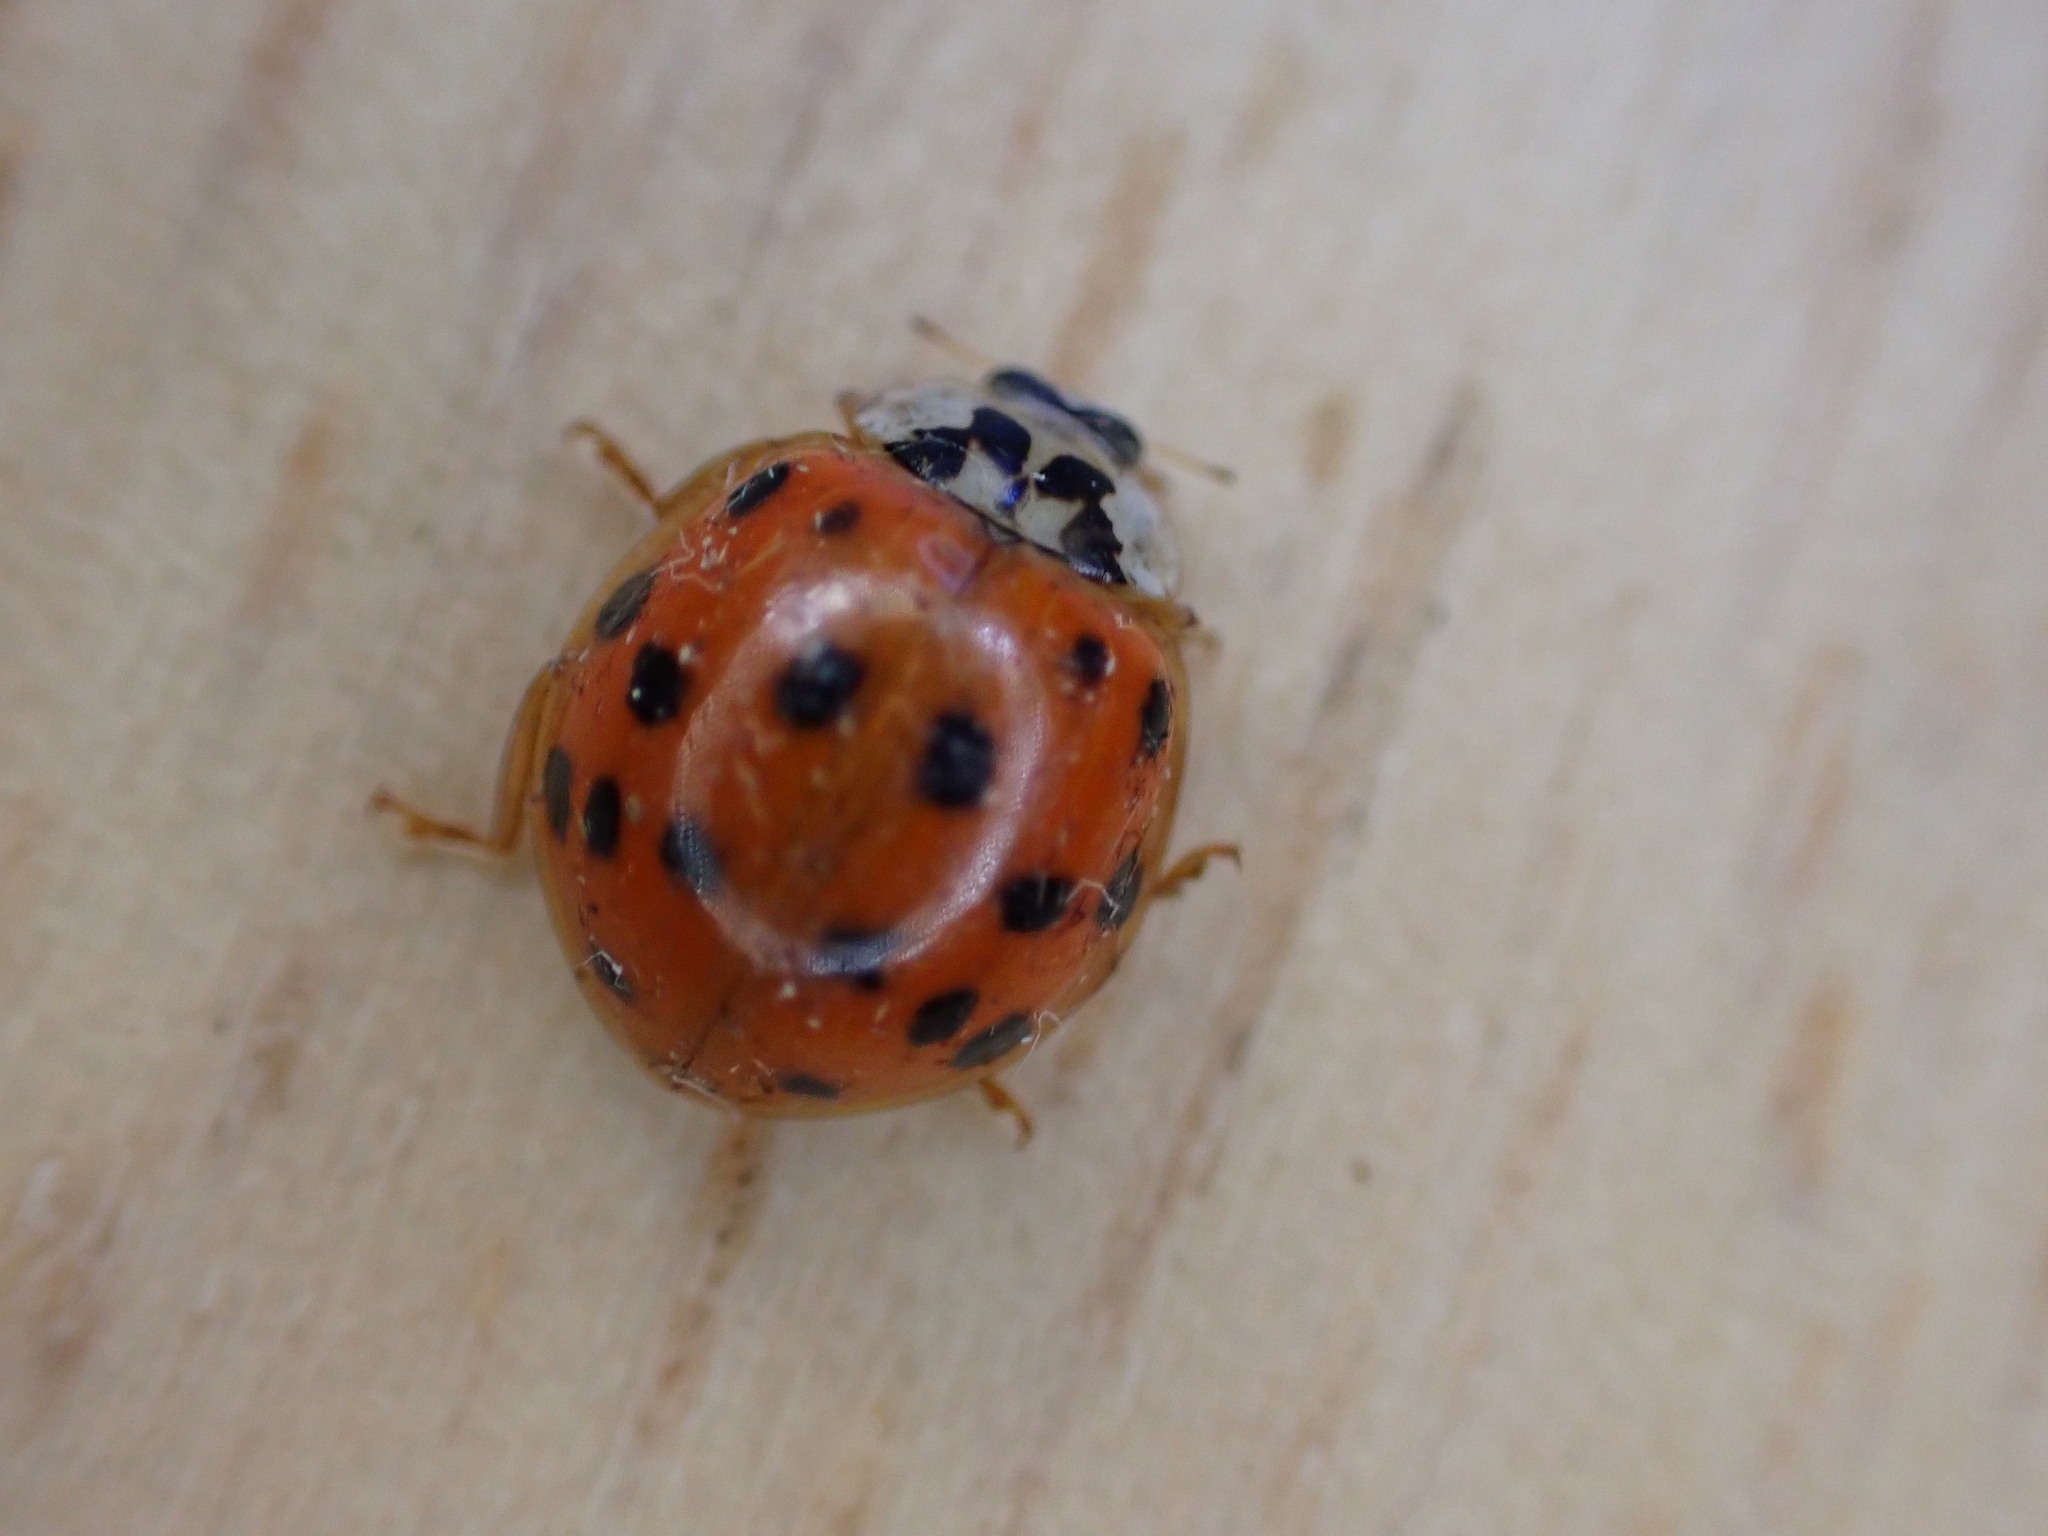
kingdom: Animalia
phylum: Arthropoda
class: Insecta
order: Coleoptera
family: Coccinellidae
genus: Harmonia
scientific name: Harmonia axyridis
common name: Harlequin ladybird
